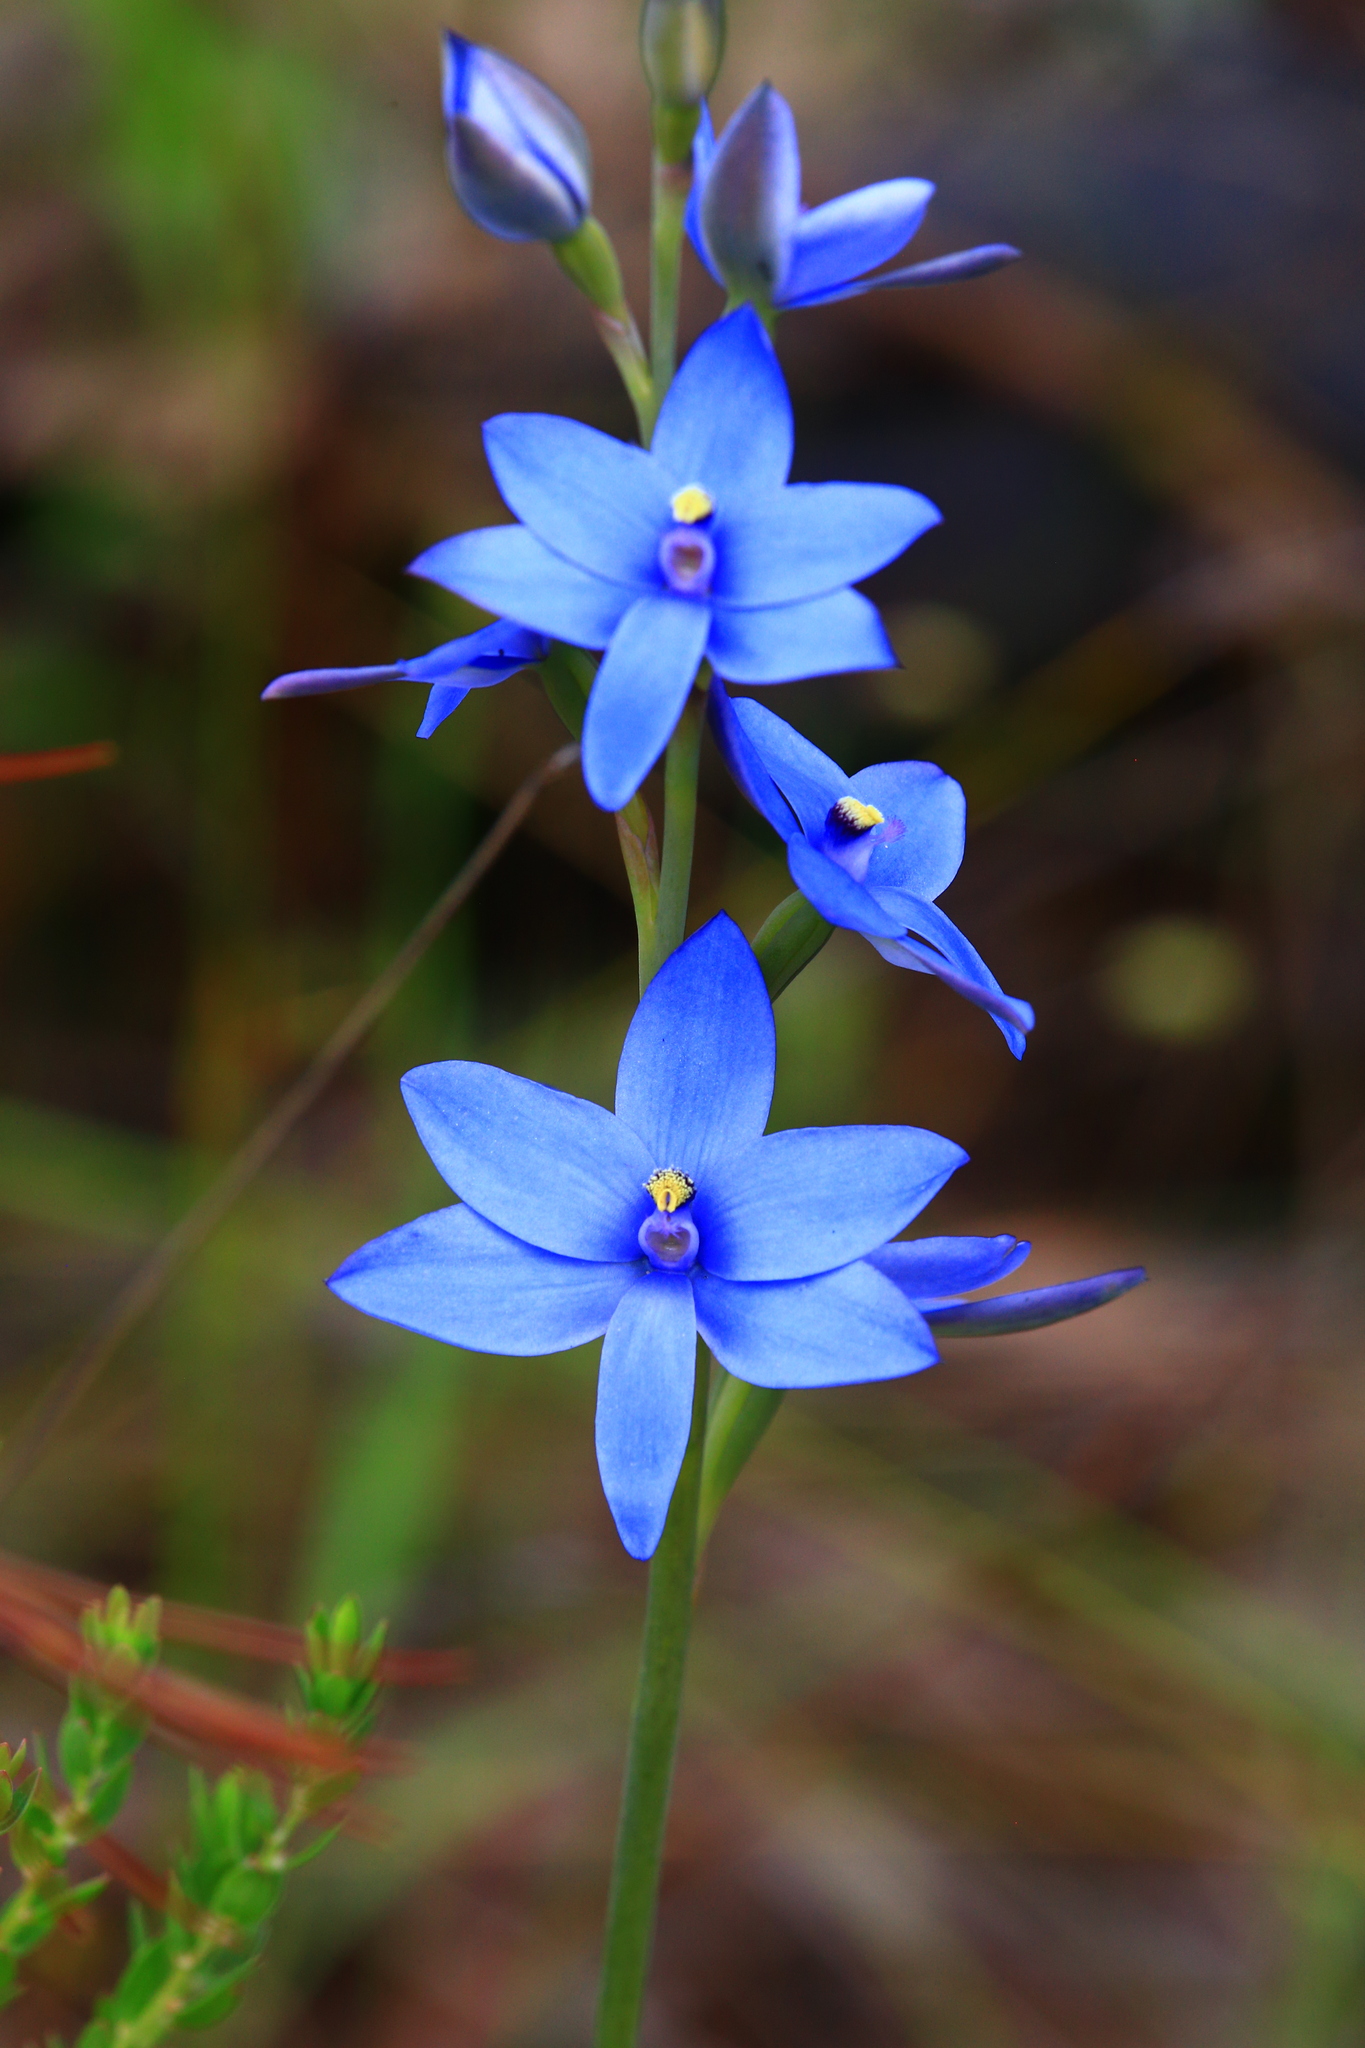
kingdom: Plantae
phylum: Tracheophyta
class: Liliopsida
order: Asparagales
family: Orchidaceae
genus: Thelymitra
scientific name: Thelymitra crinita
